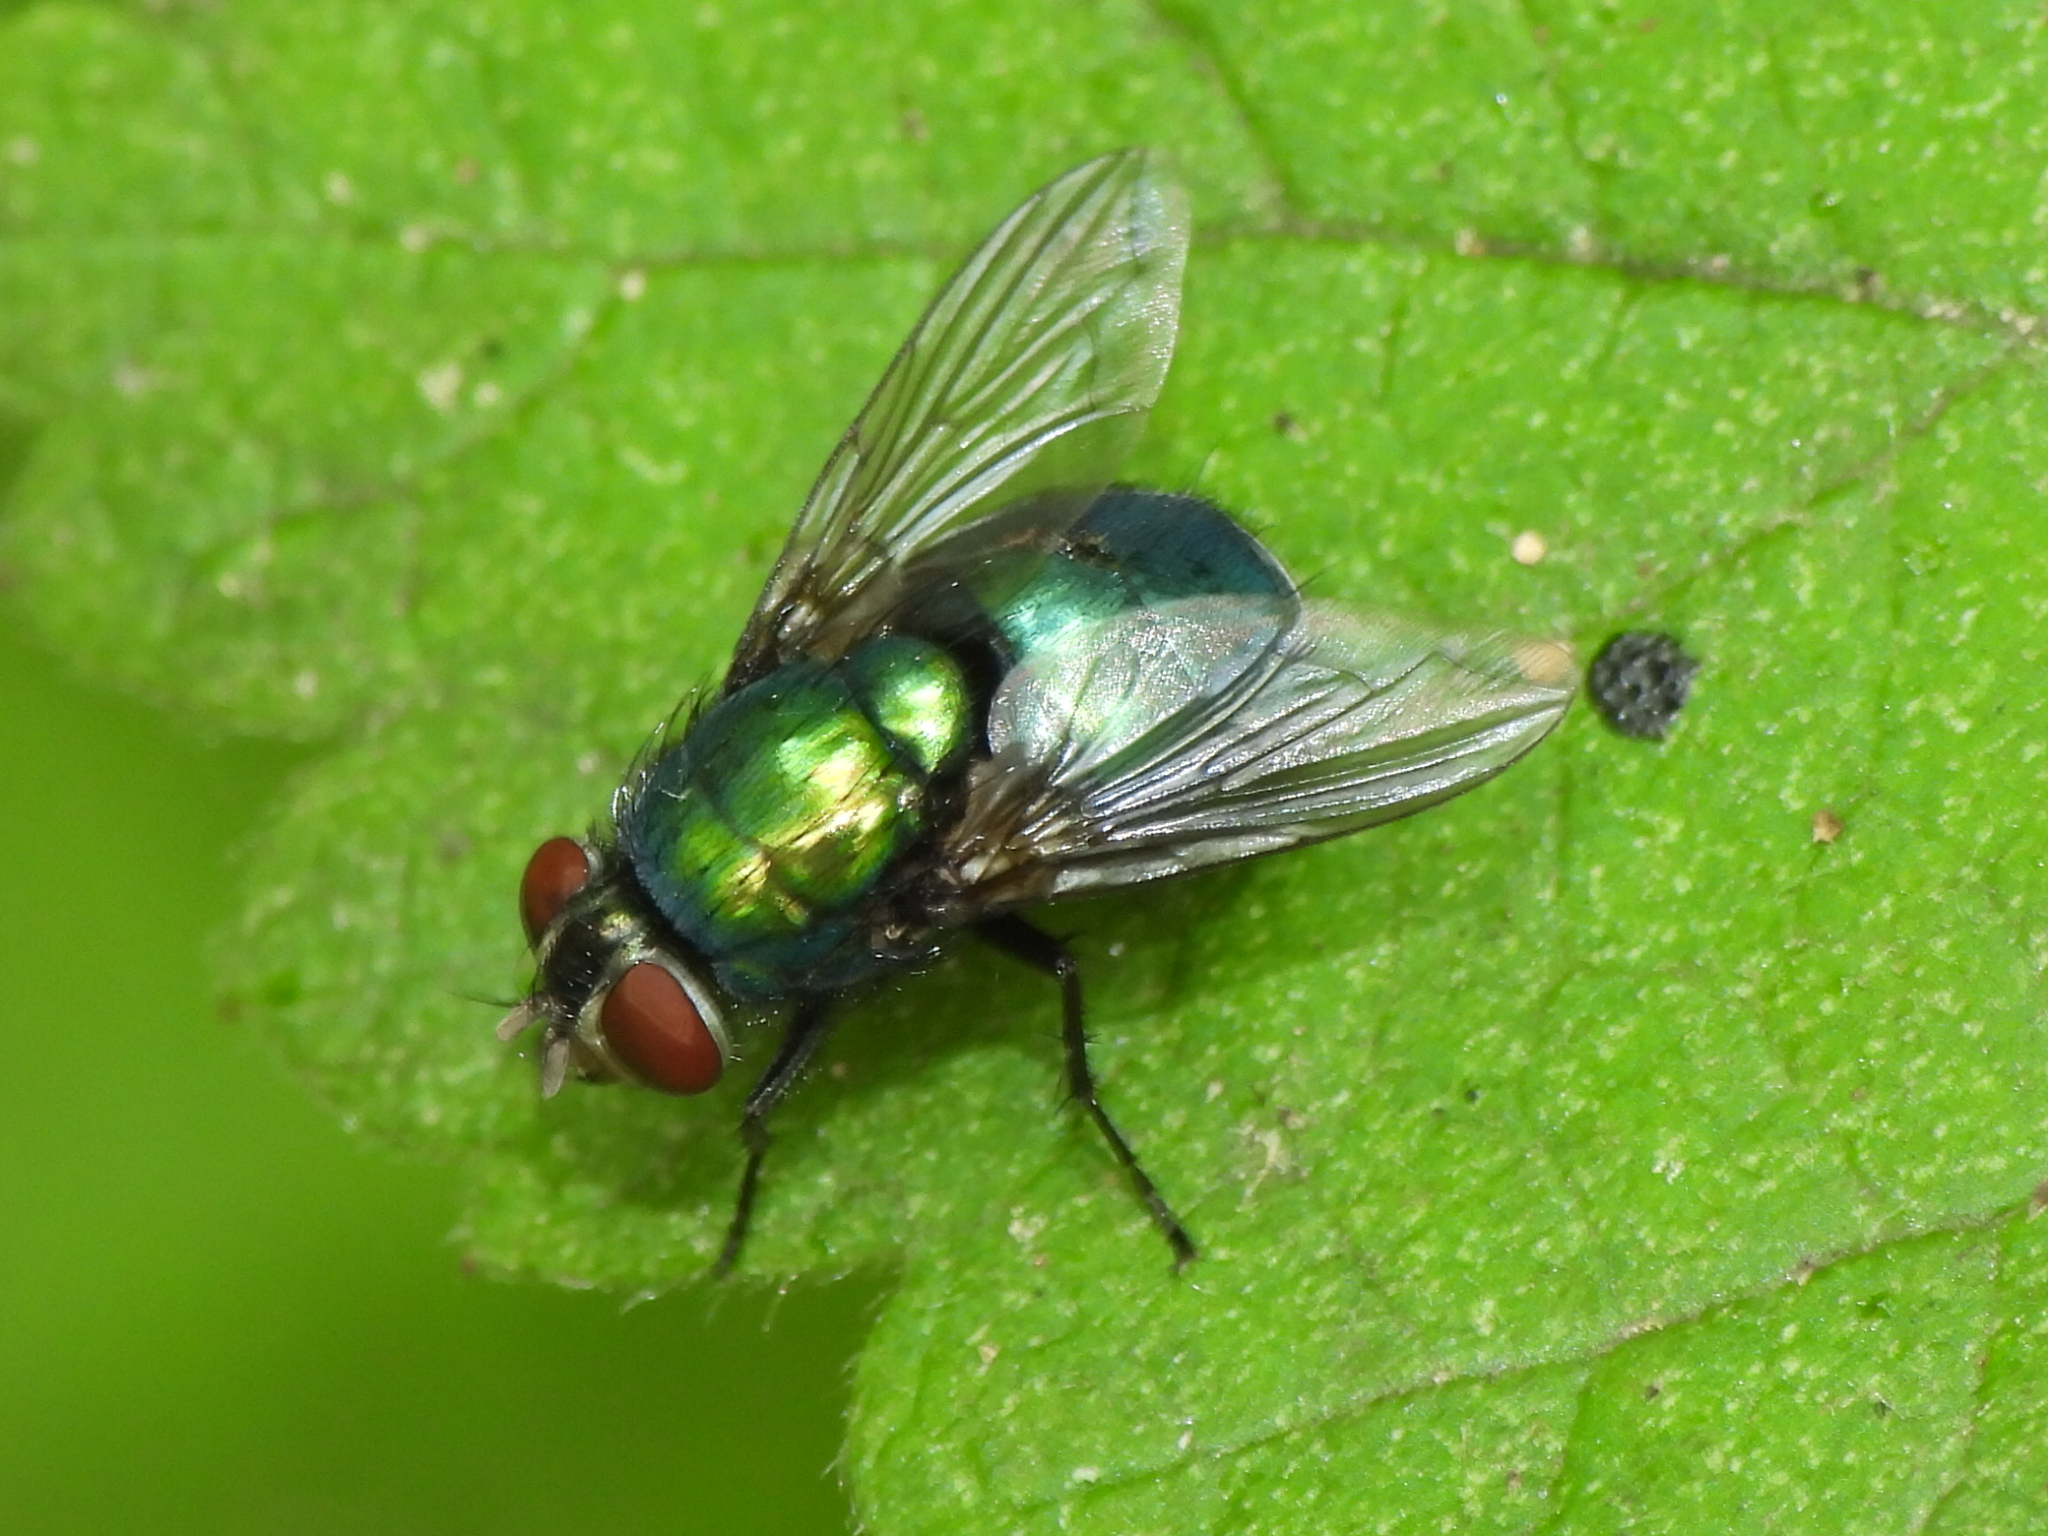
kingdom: Animalia
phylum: Arthropoda
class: Insecta
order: Diptera
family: Calliphoridae
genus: Lucilia
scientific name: Lucilia illustris
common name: Illustrious greenbottle
